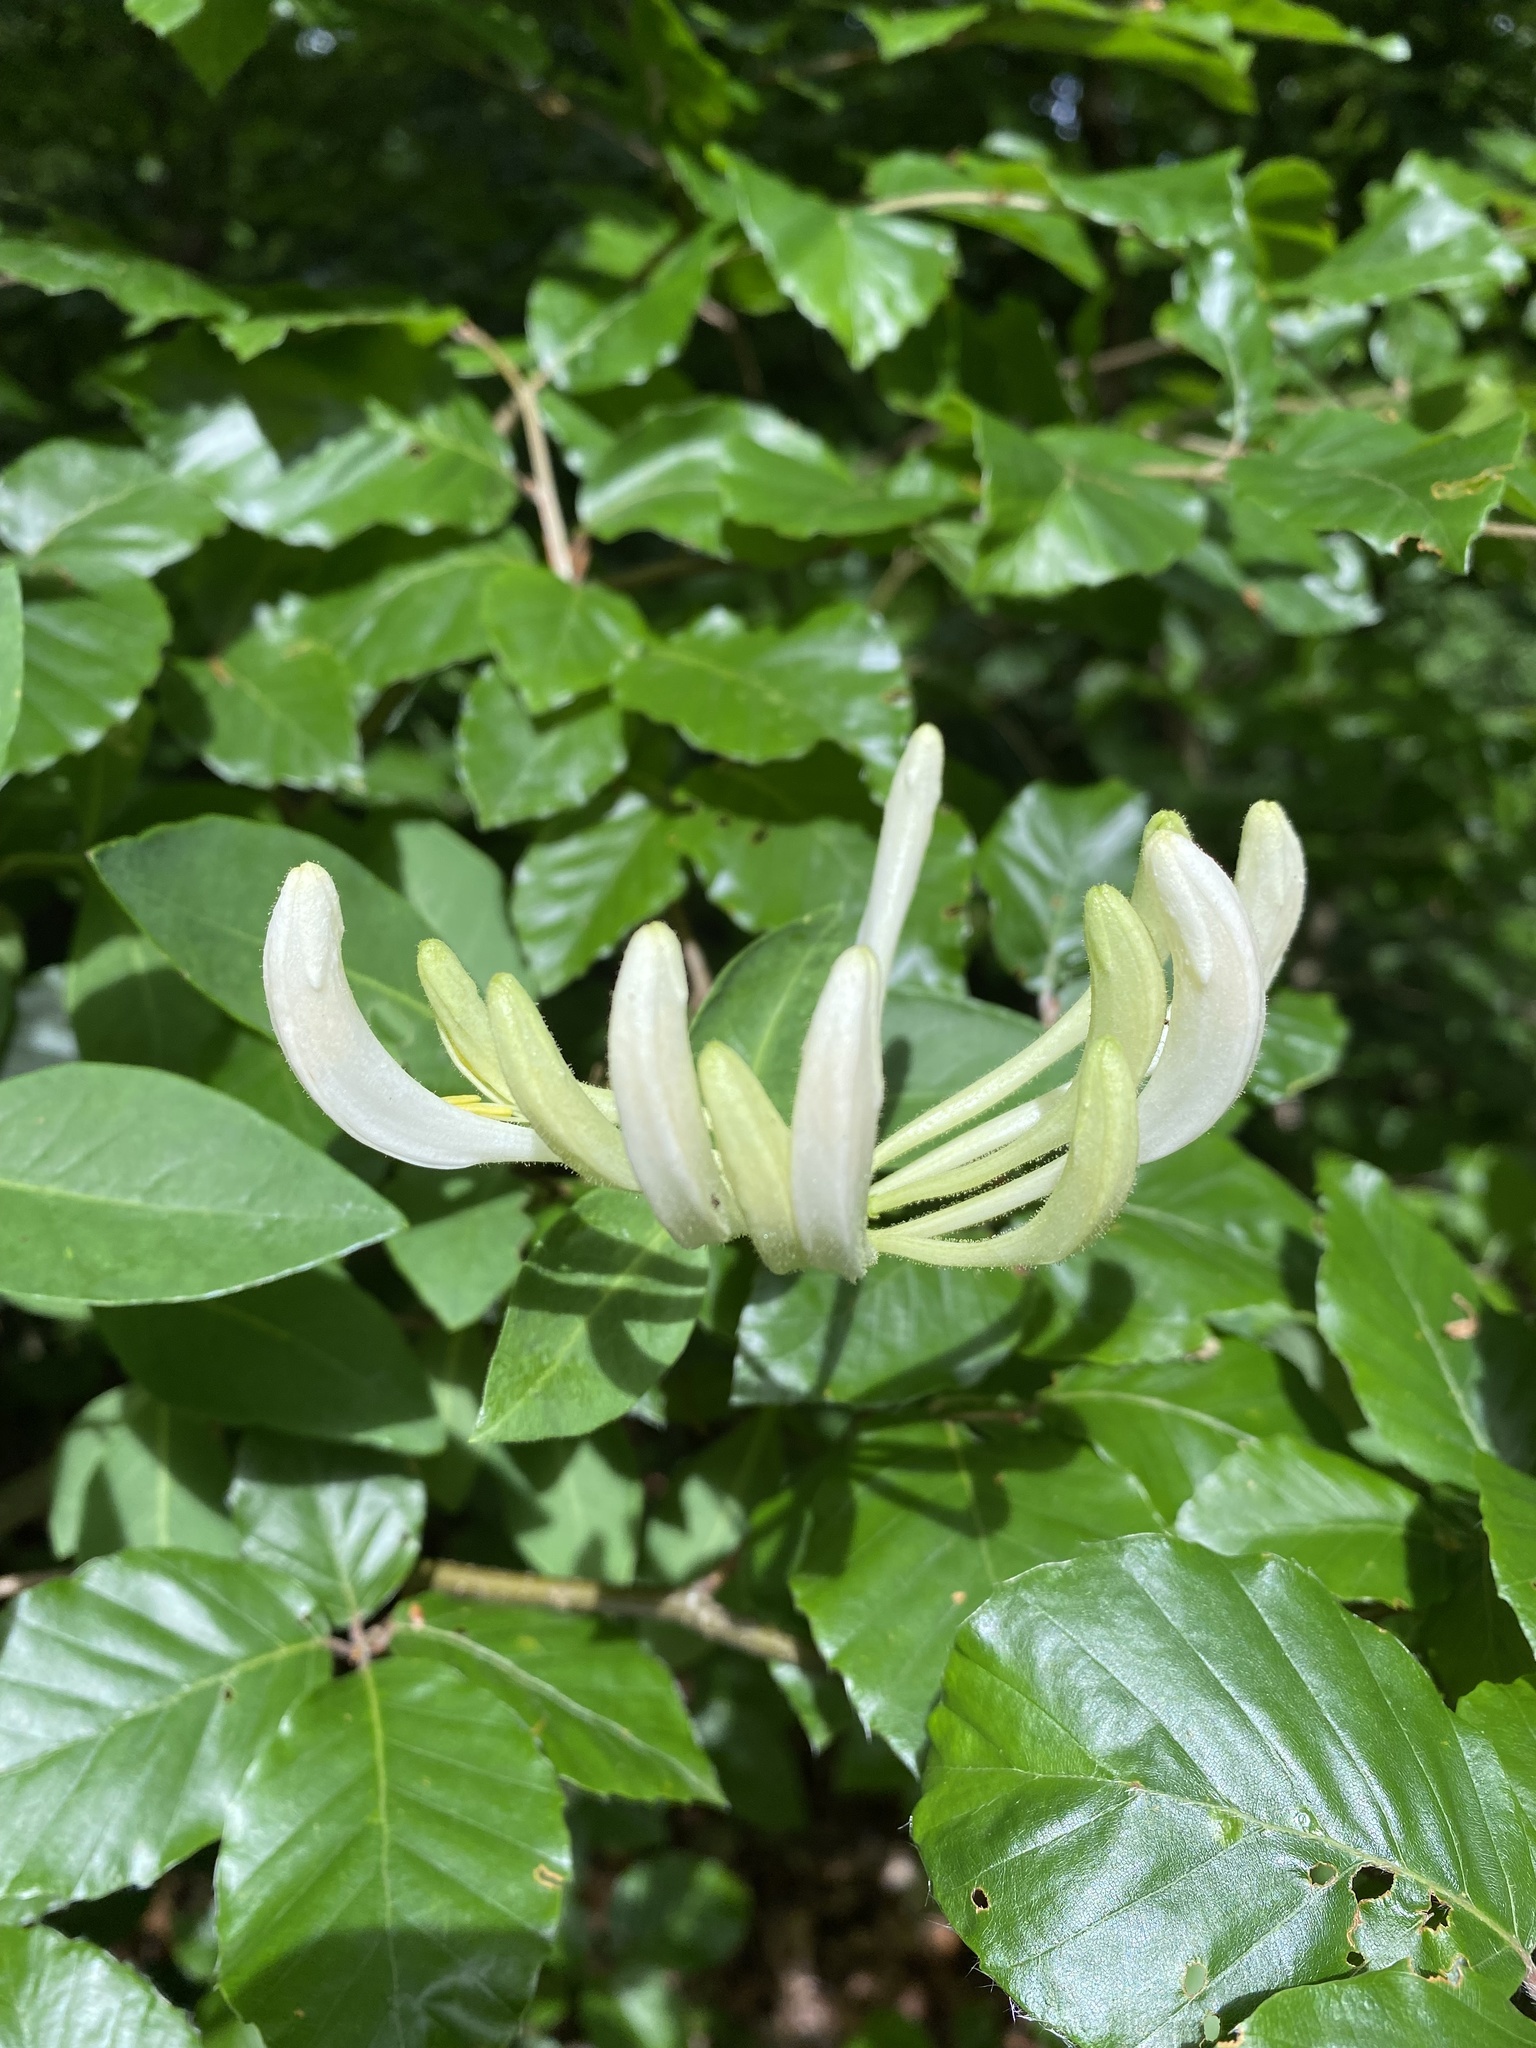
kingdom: Plantae
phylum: Tracheophyta
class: Magnoliopsida
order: Dipsacales
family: Caprifoliaceae
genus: Lonicera
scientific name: Lonicera periclymenum
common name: European honeysuckle
